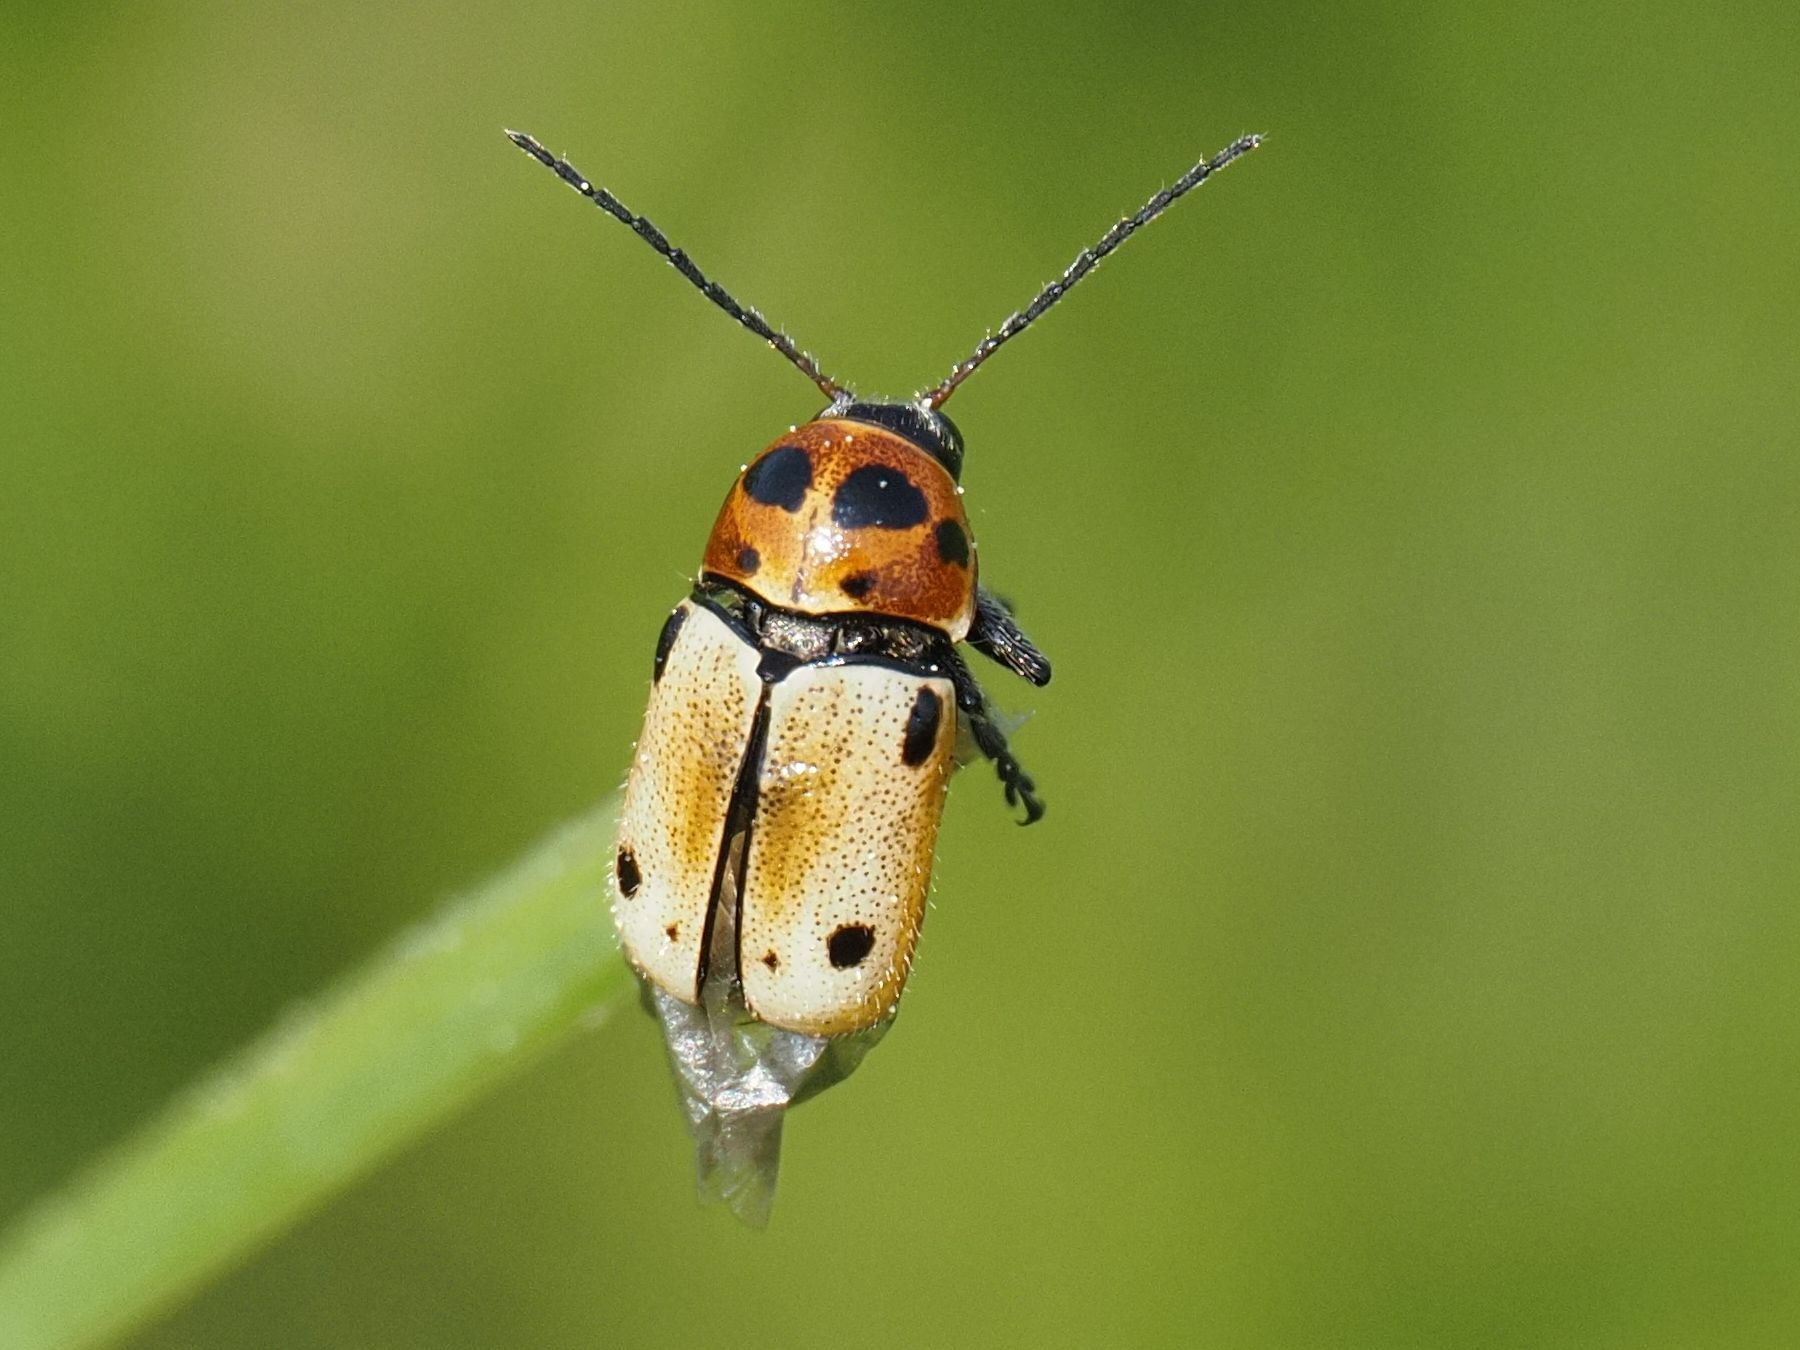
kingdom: Animalia
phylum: Arthropoda
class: Insecta
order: Coleoptera
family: Chrysomelidae
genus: Cryptocephalus
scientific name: Cryptocephalus quatuordecimmaculatus
